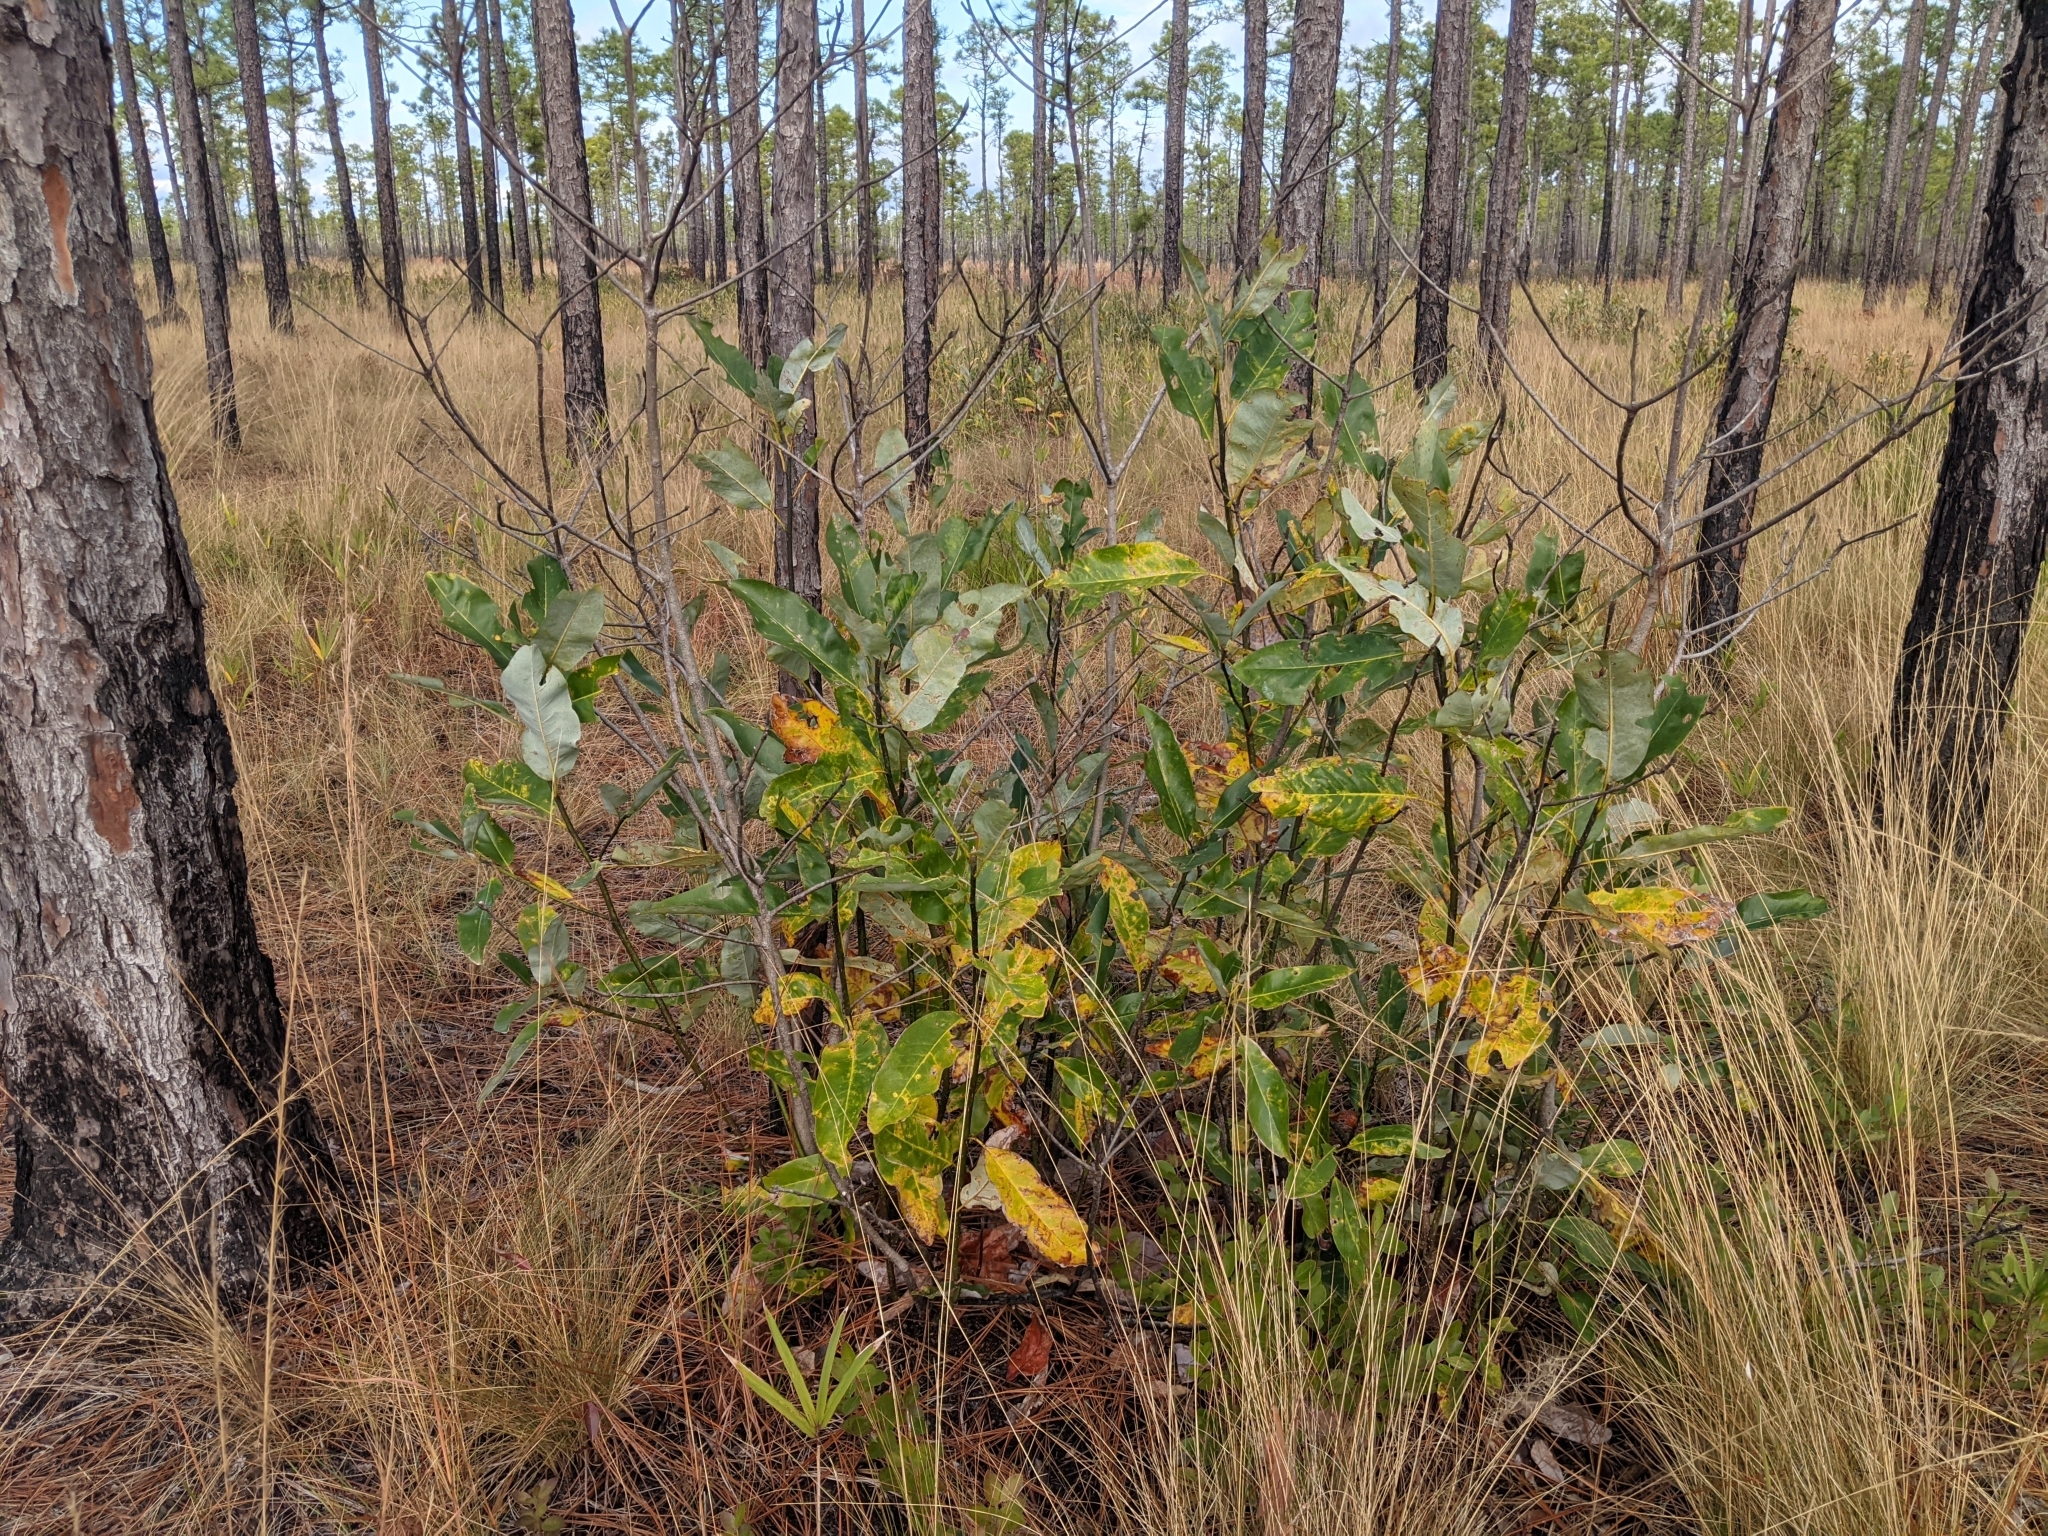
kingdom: Plantae
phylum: Tracheophyta
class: Magnoliopsida
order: Magnoliales
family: Magnoliaceae
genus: Magnolia
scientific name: Magnolia virginiana
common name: Swamp bay
